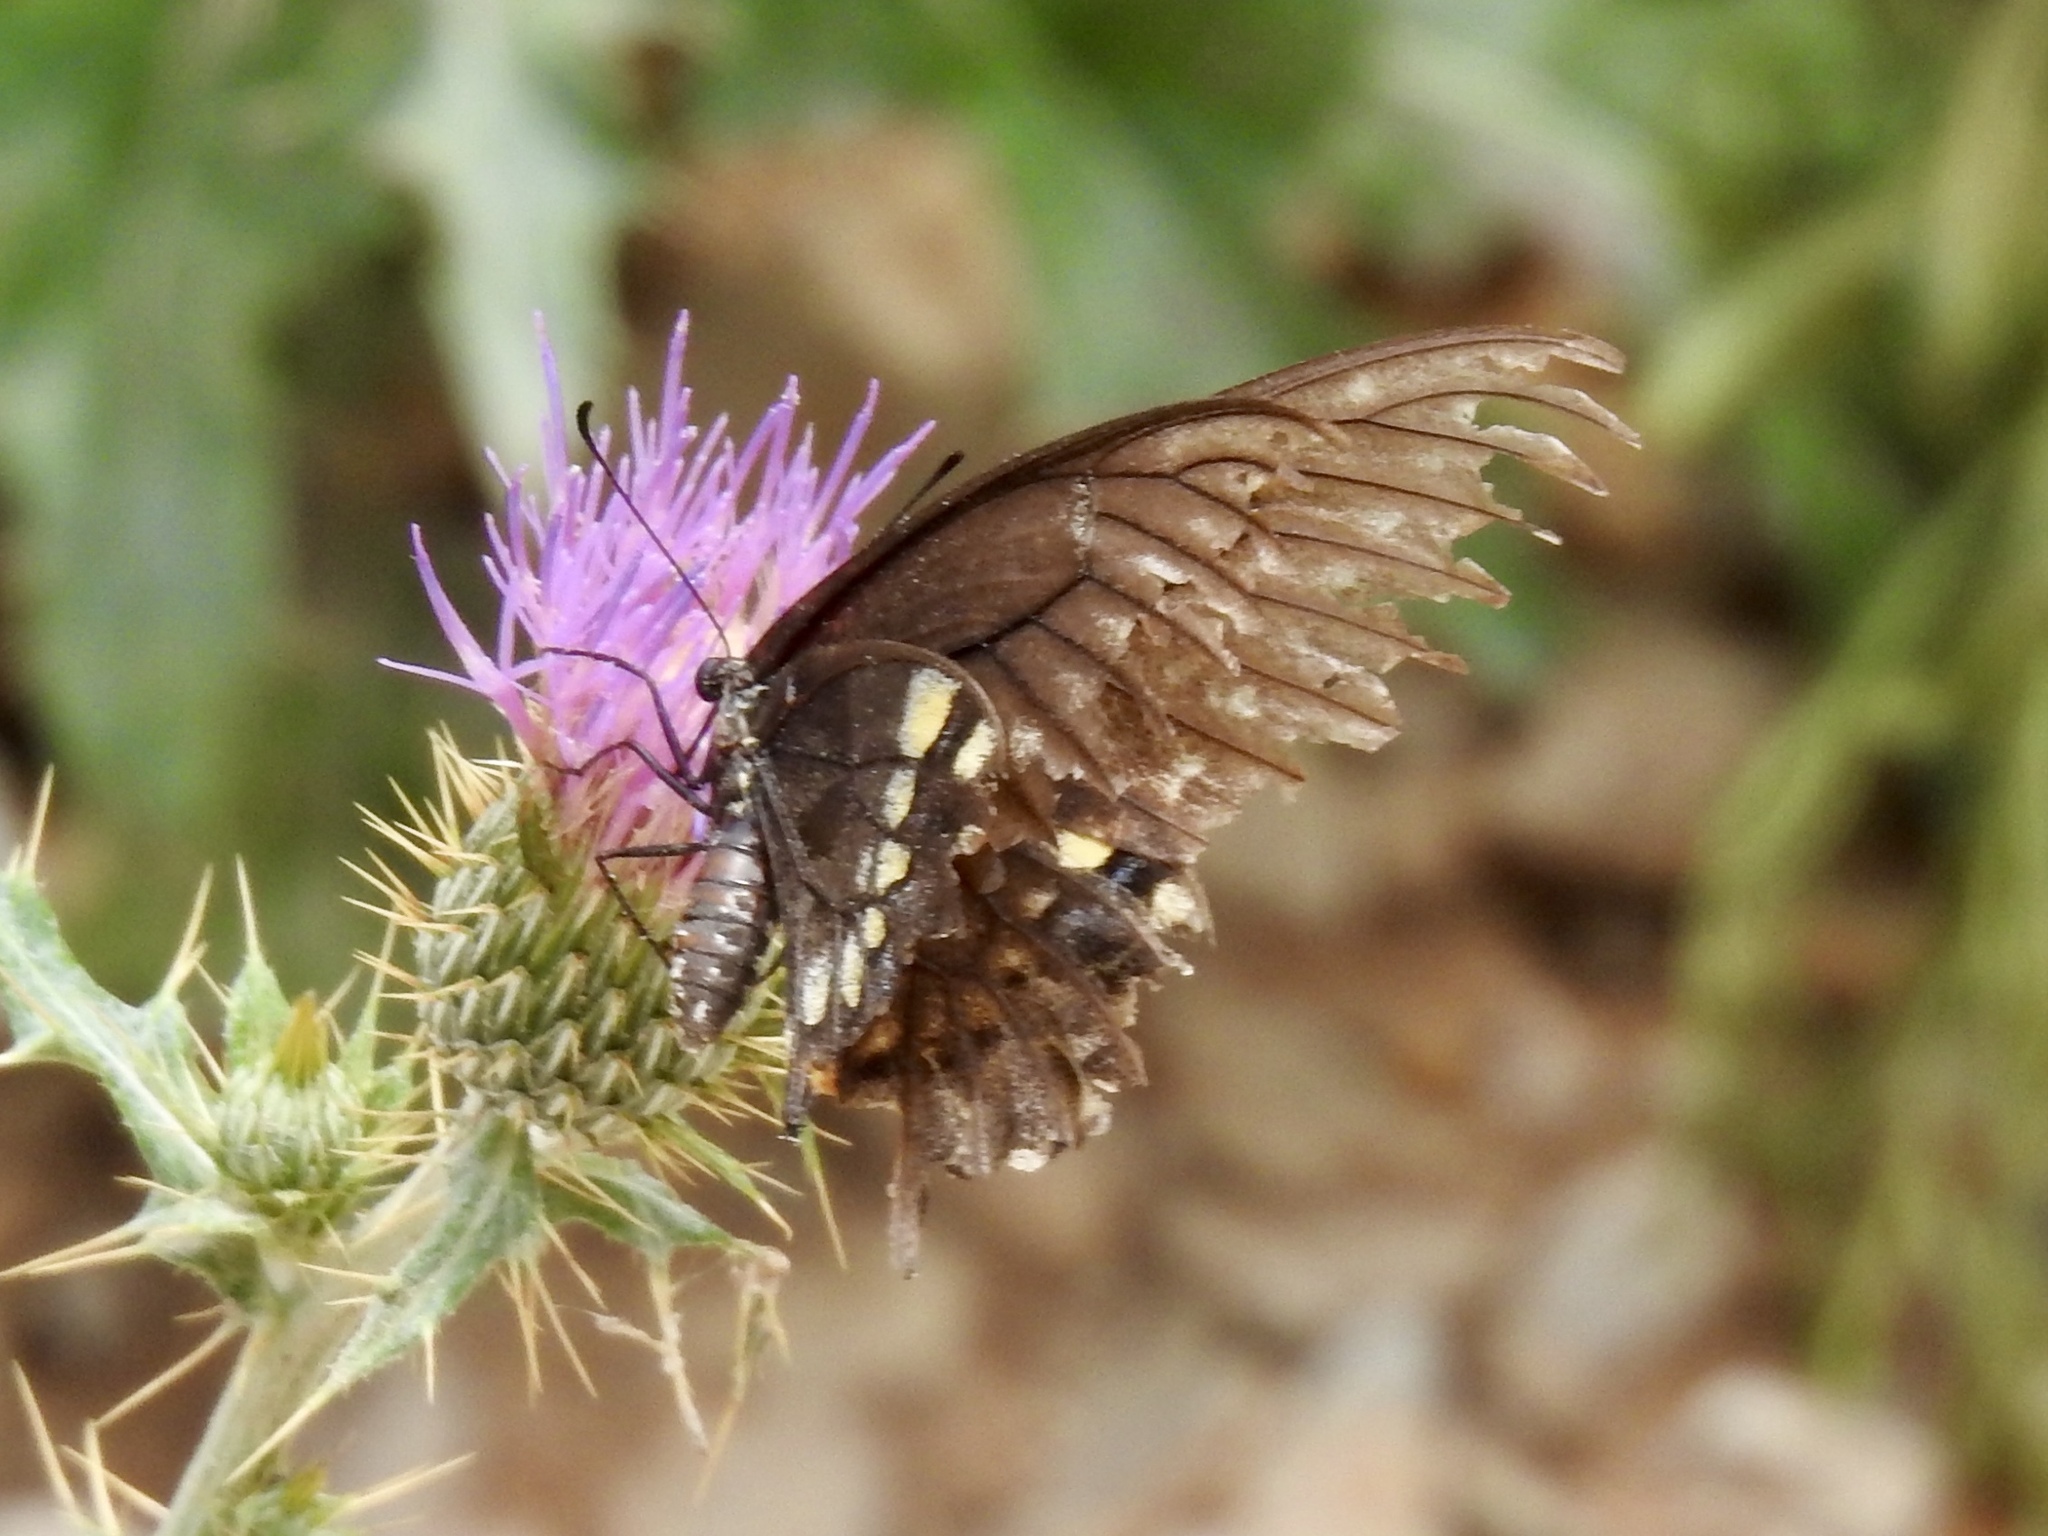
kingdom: Animalia
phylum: Arthropoda
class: Insecta
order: Lepidoptera
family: Papilionidae
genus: Papilio
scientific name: Papilio polyxenes
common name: Black swallowtail
